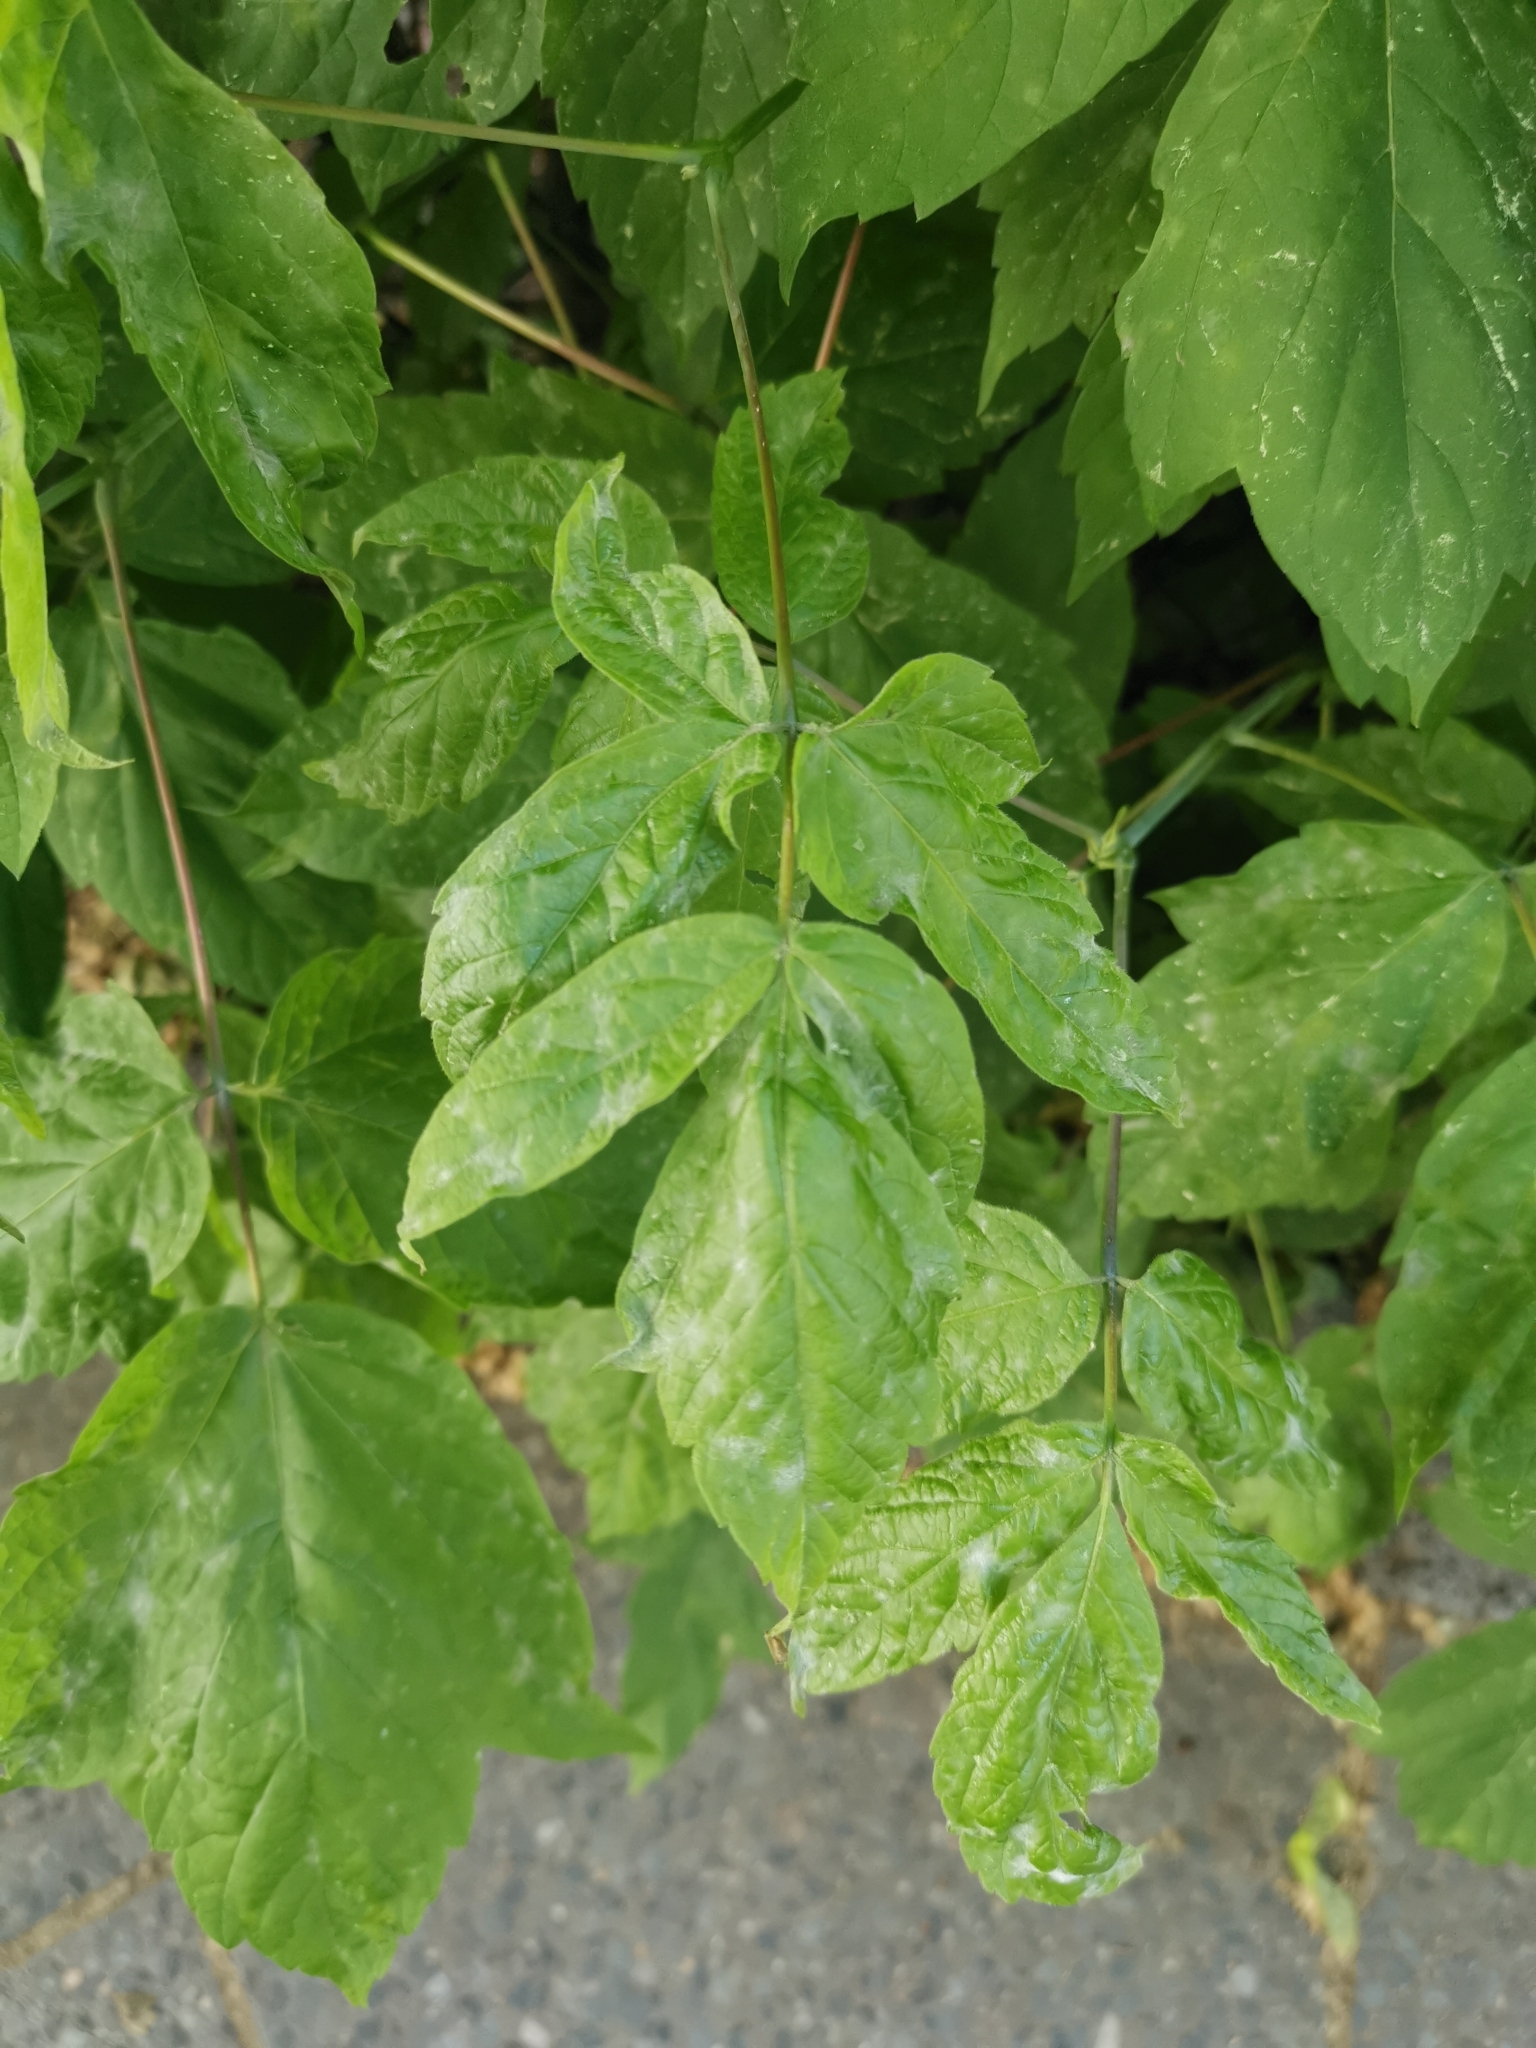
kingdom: Plantae
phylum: Tracheophyta
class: Magnoliopsida
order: Sapindales
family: Sapindaceae
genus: Acer
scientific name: Acer negundo
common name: Ashleaf maple
